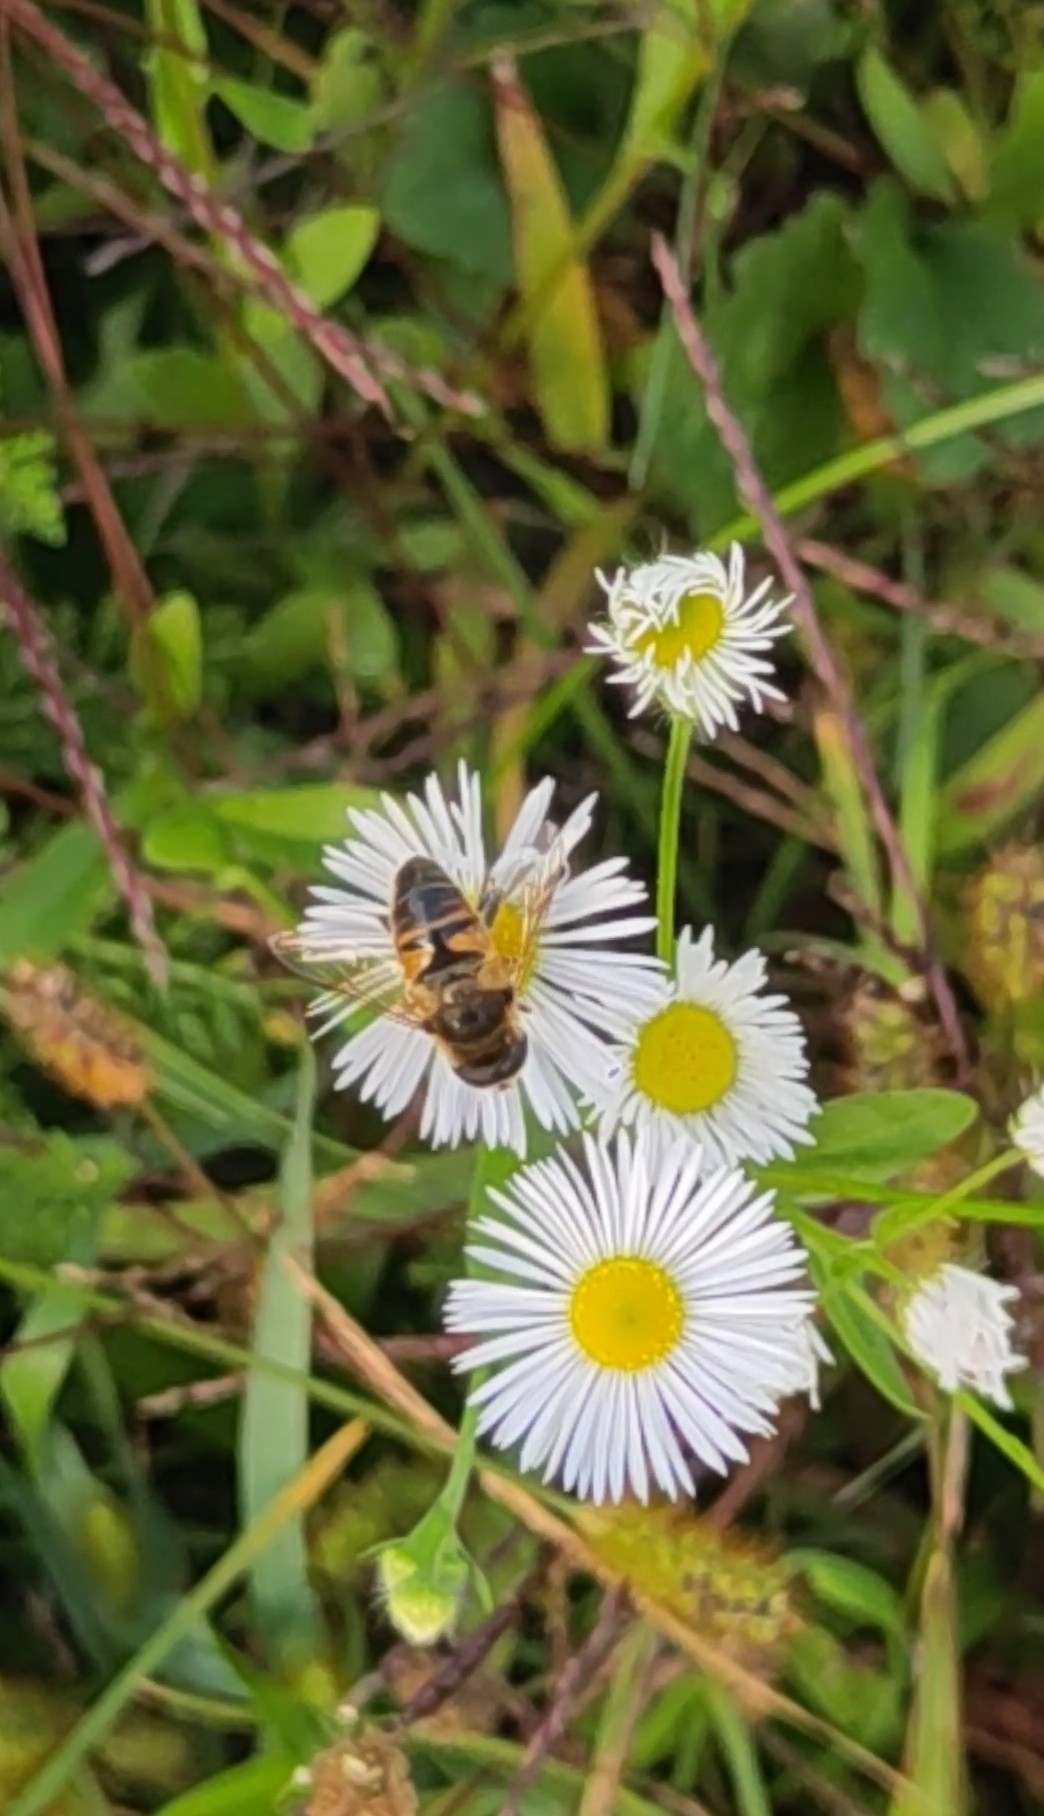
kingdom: Animalia
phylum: Arthropoda
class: Insecta
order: Diptera
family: Syrphidae
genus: Eristalis
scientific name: Eristalis tenax
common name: Drone fly
